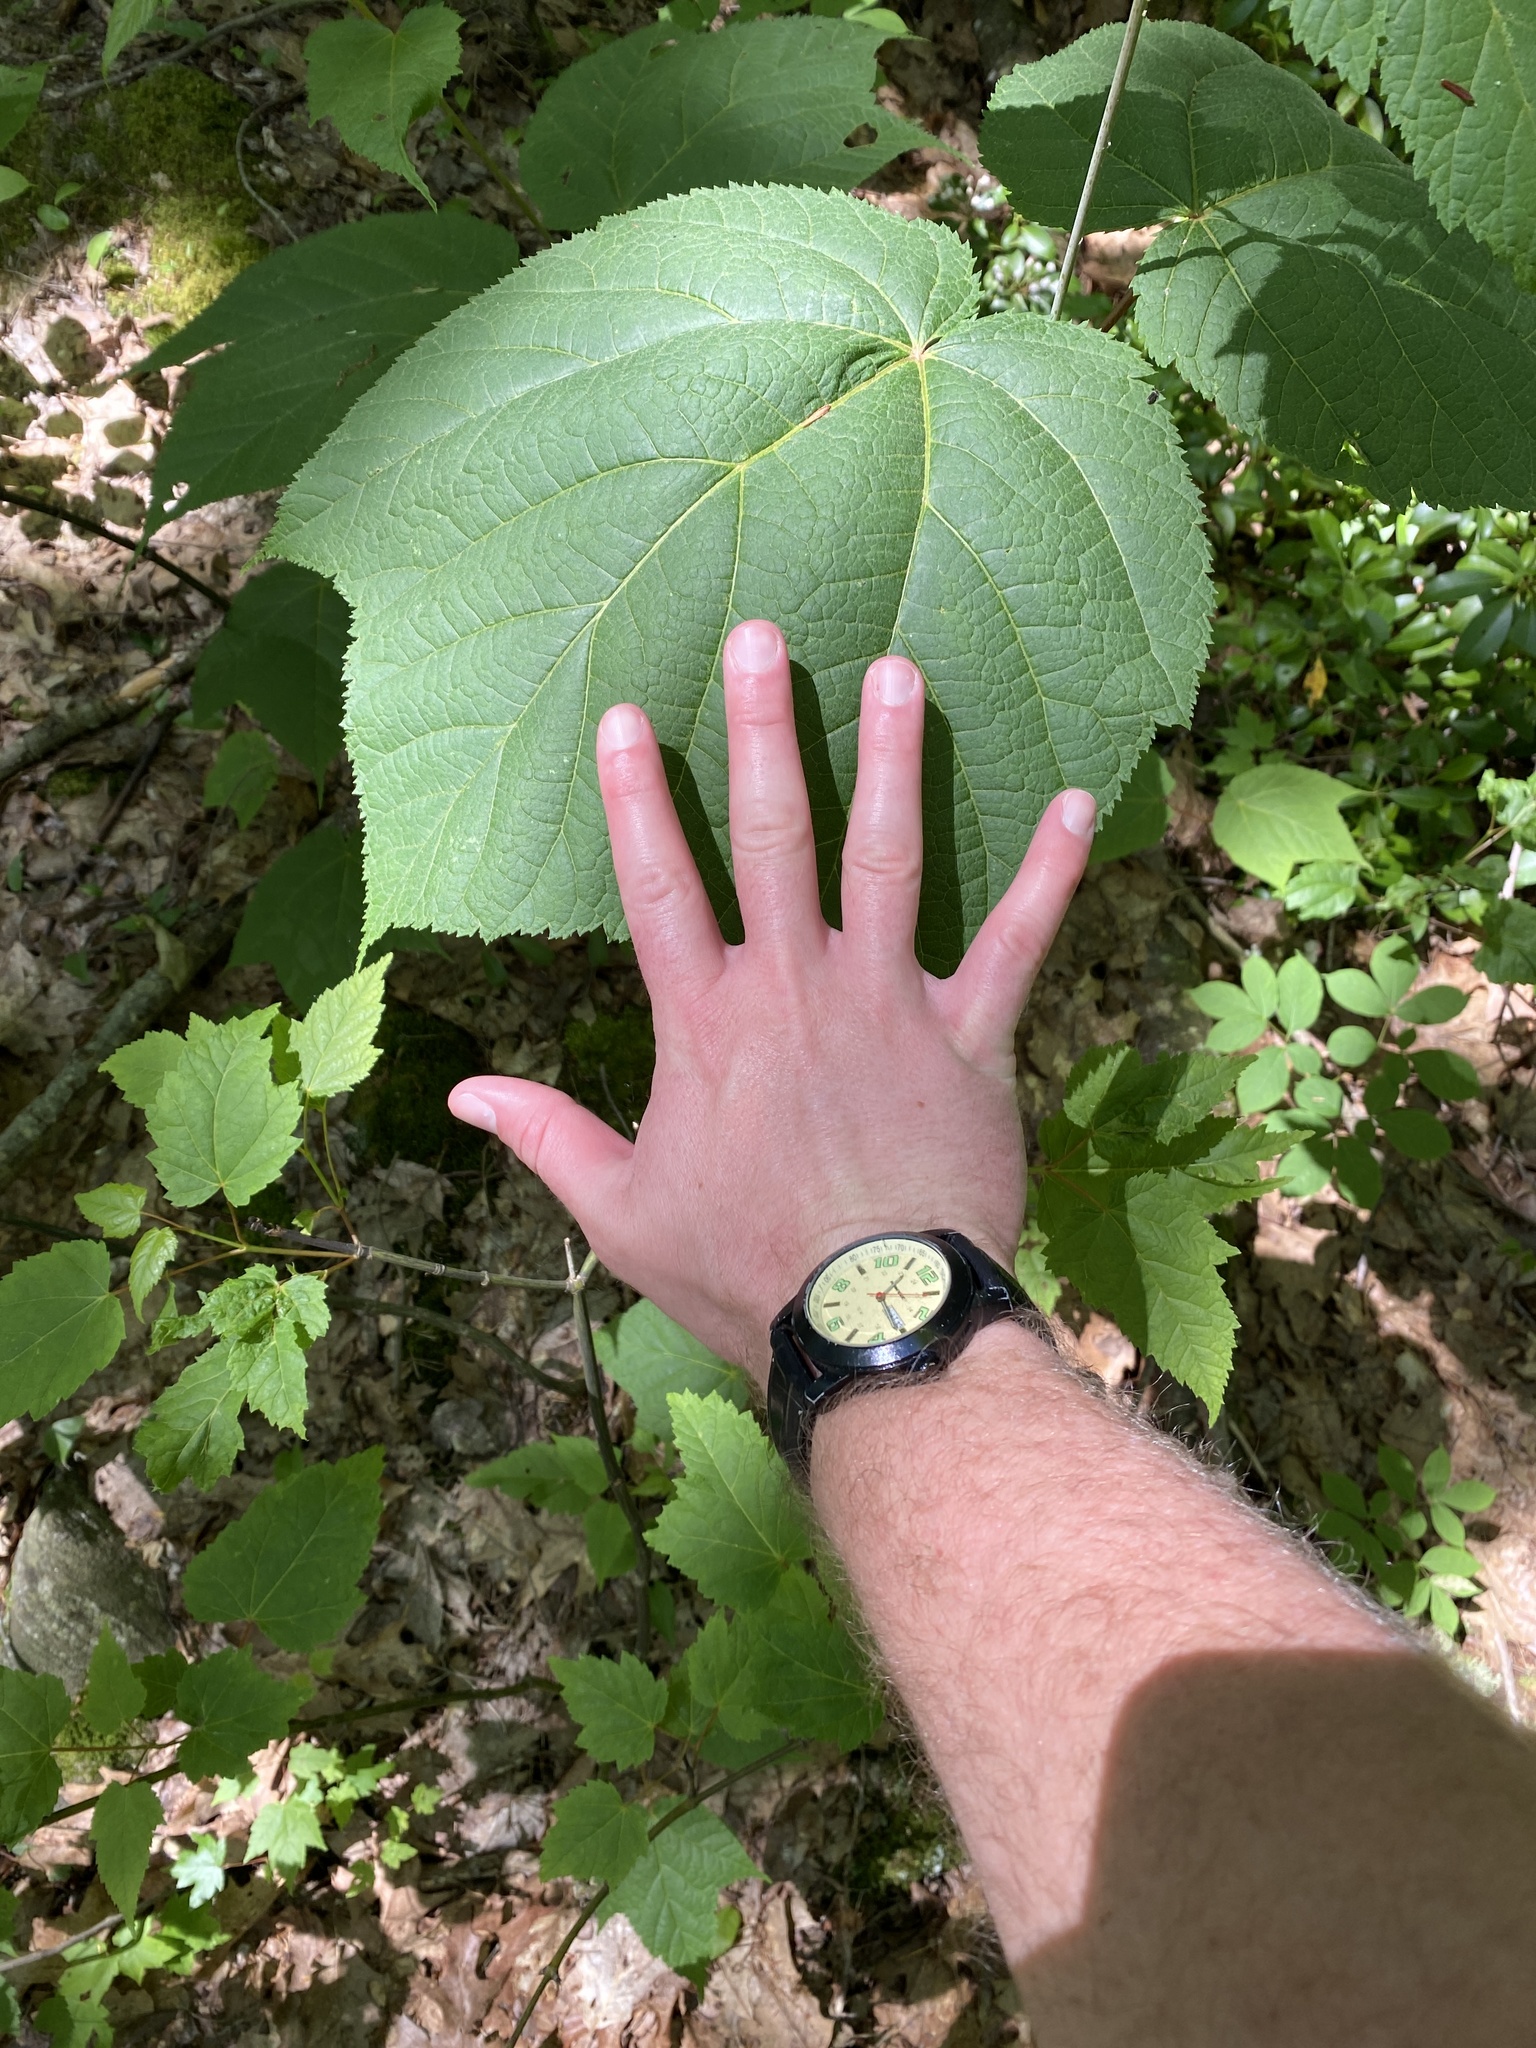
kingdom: Plantae
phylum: Tracheophyta
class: Magnoliopsida
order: Sapindales
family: Sapindaceae
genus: Acer
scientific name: Acer pensylvanicum
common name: Moosewood
